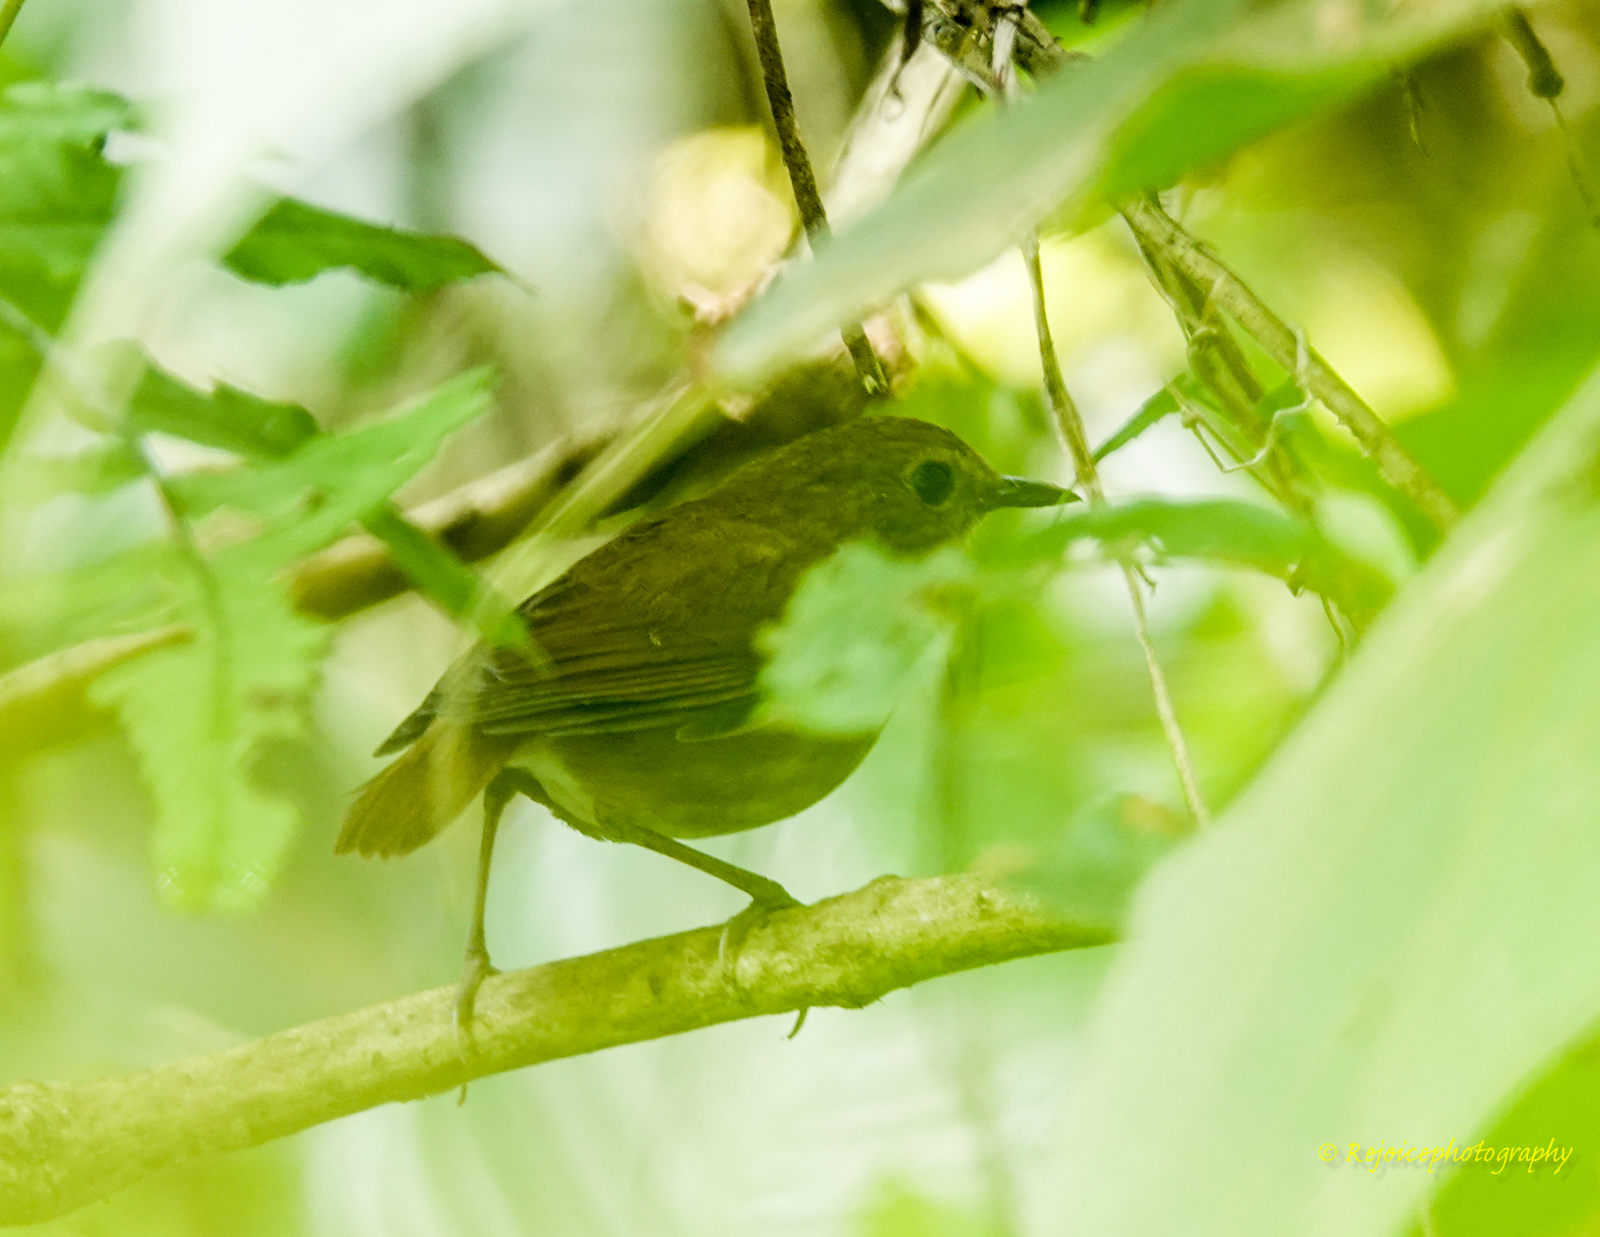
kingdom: Animalia
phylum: Chordata
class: Aves
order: Passeriformes
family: Muscicapidae
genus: Brachypteryx
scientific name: Brachypteryx leucophris
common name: Lesser shortwing
